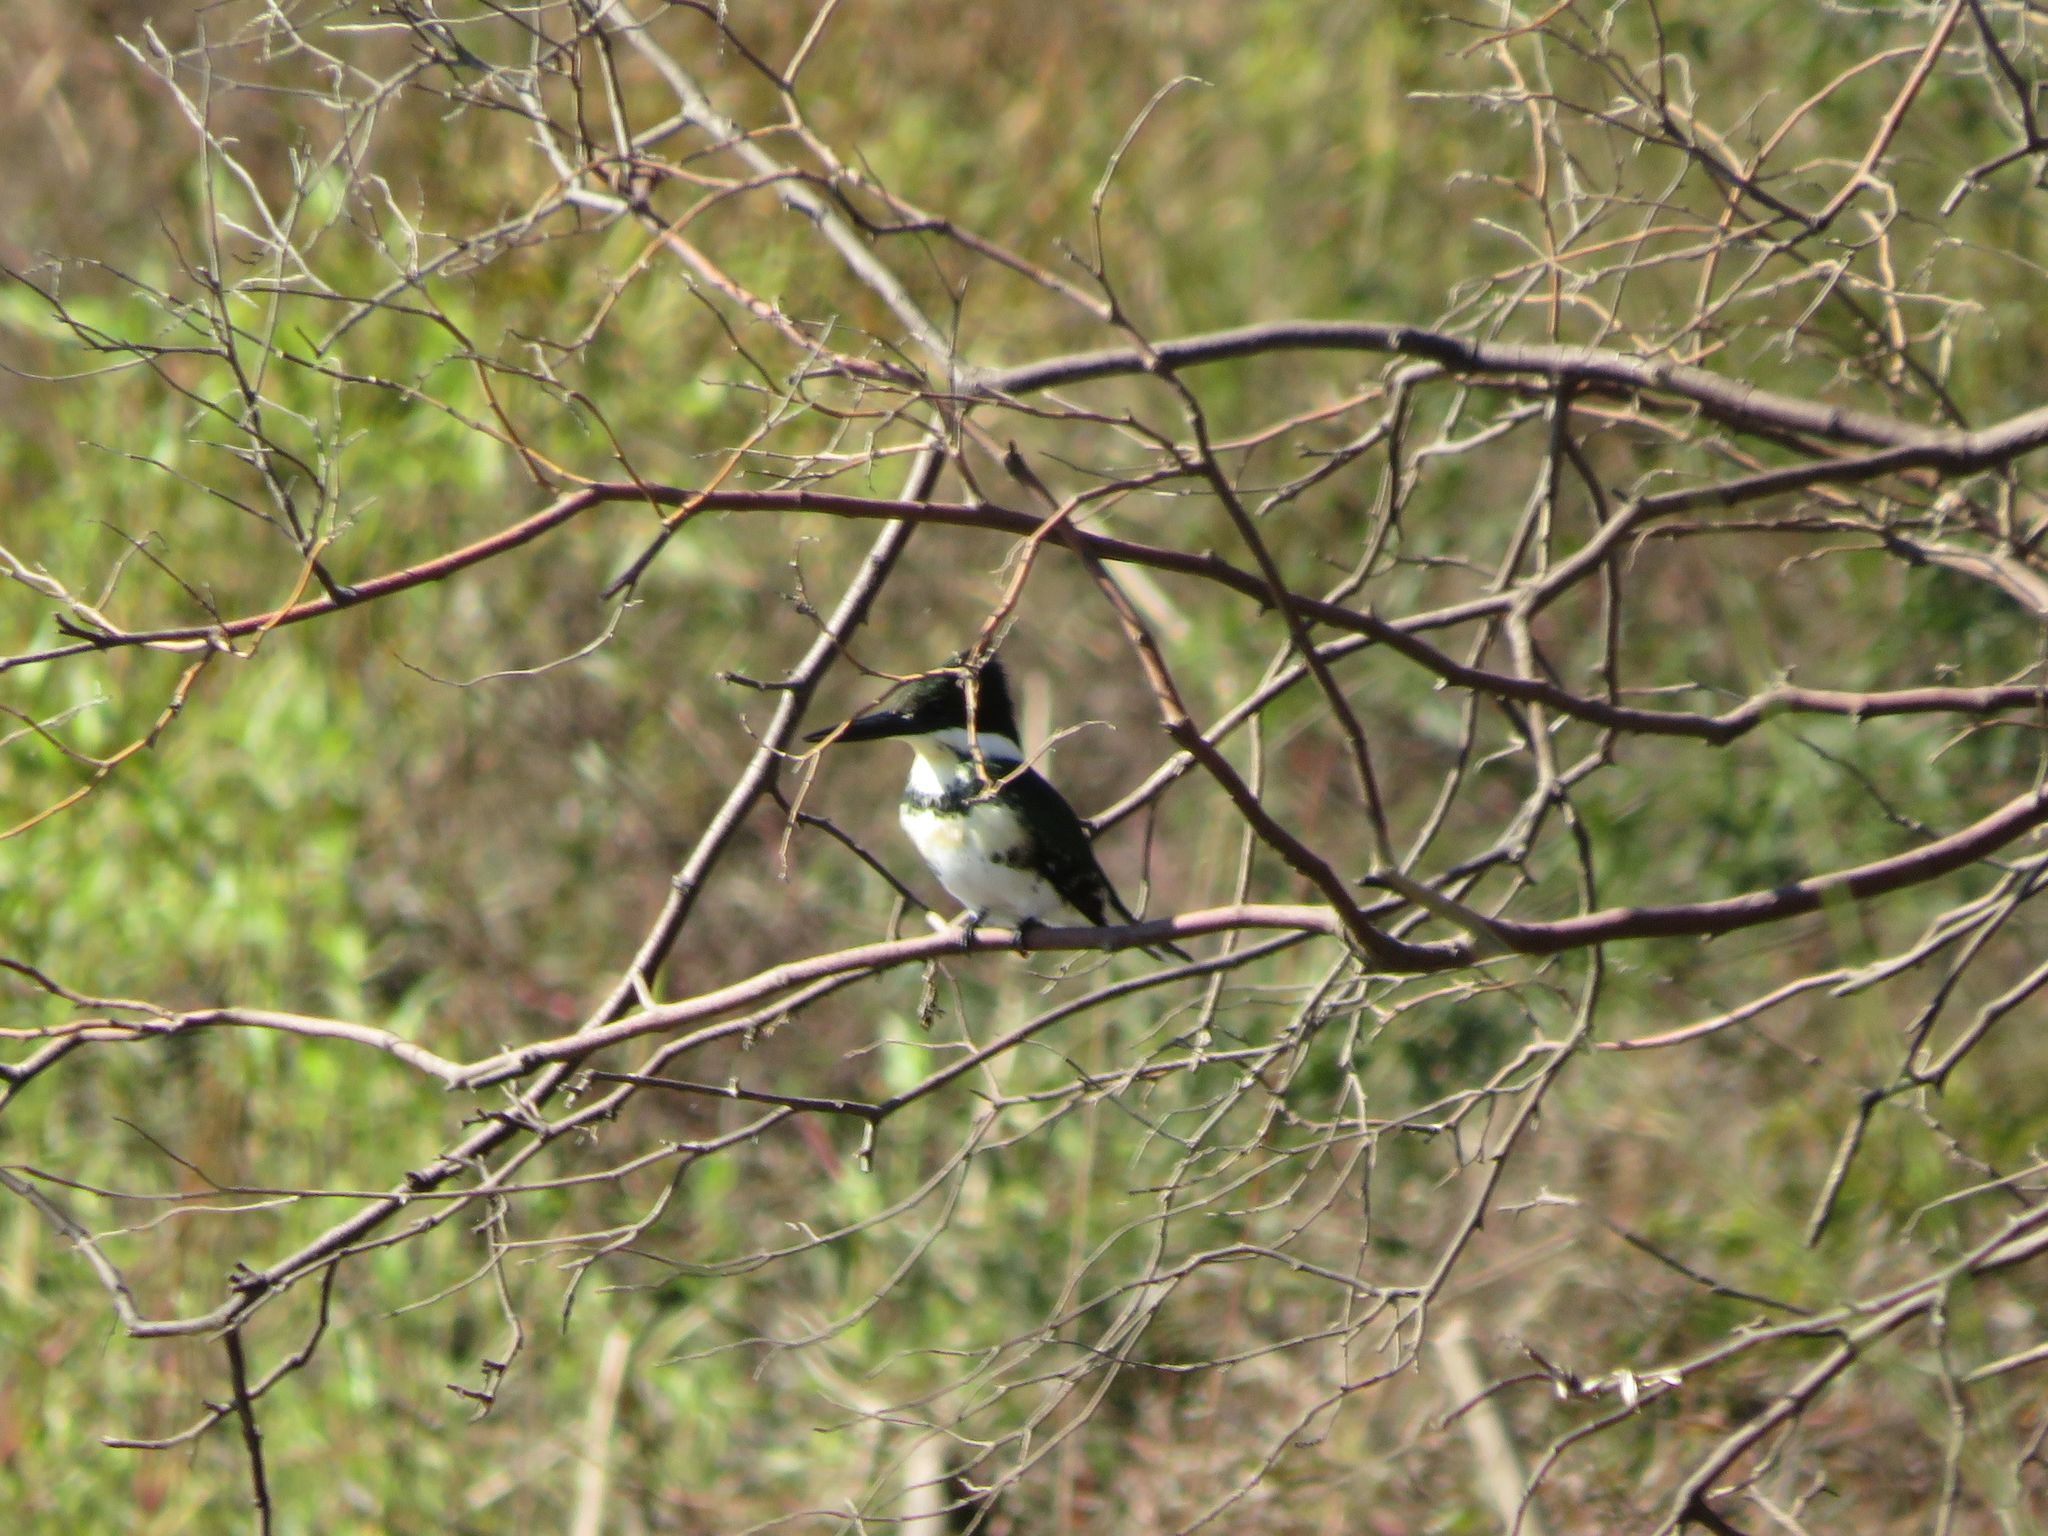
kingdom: Animalia
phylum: Chordata
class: Aves
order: Coraciiformes
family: Alcedinidae
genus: Chloroceryle
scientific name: Chloroceryle americana
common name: Green kingfisher
